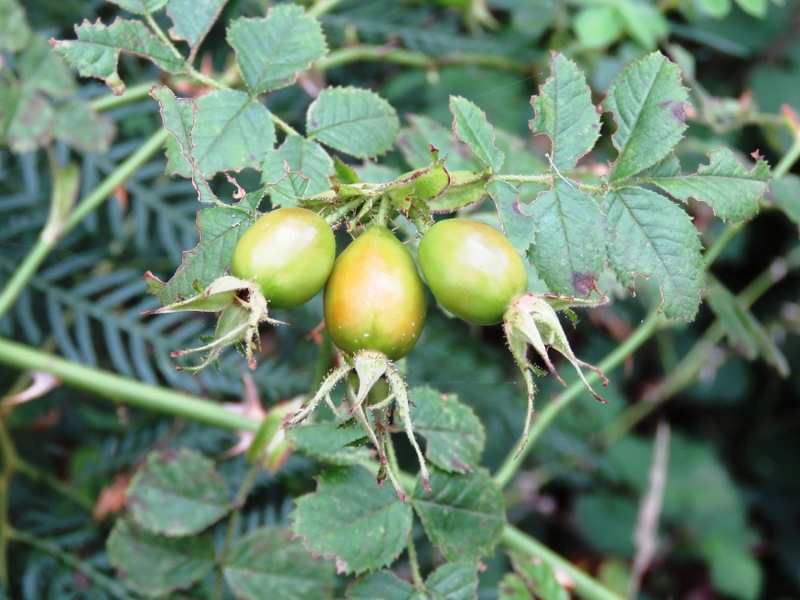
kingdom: Plantae
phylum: Tracheophyta
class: Magnoliopsida
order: Rosales
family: Rosaceae
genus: Rosa
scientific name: Rosa rubiginosa
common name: Sweet-briar
